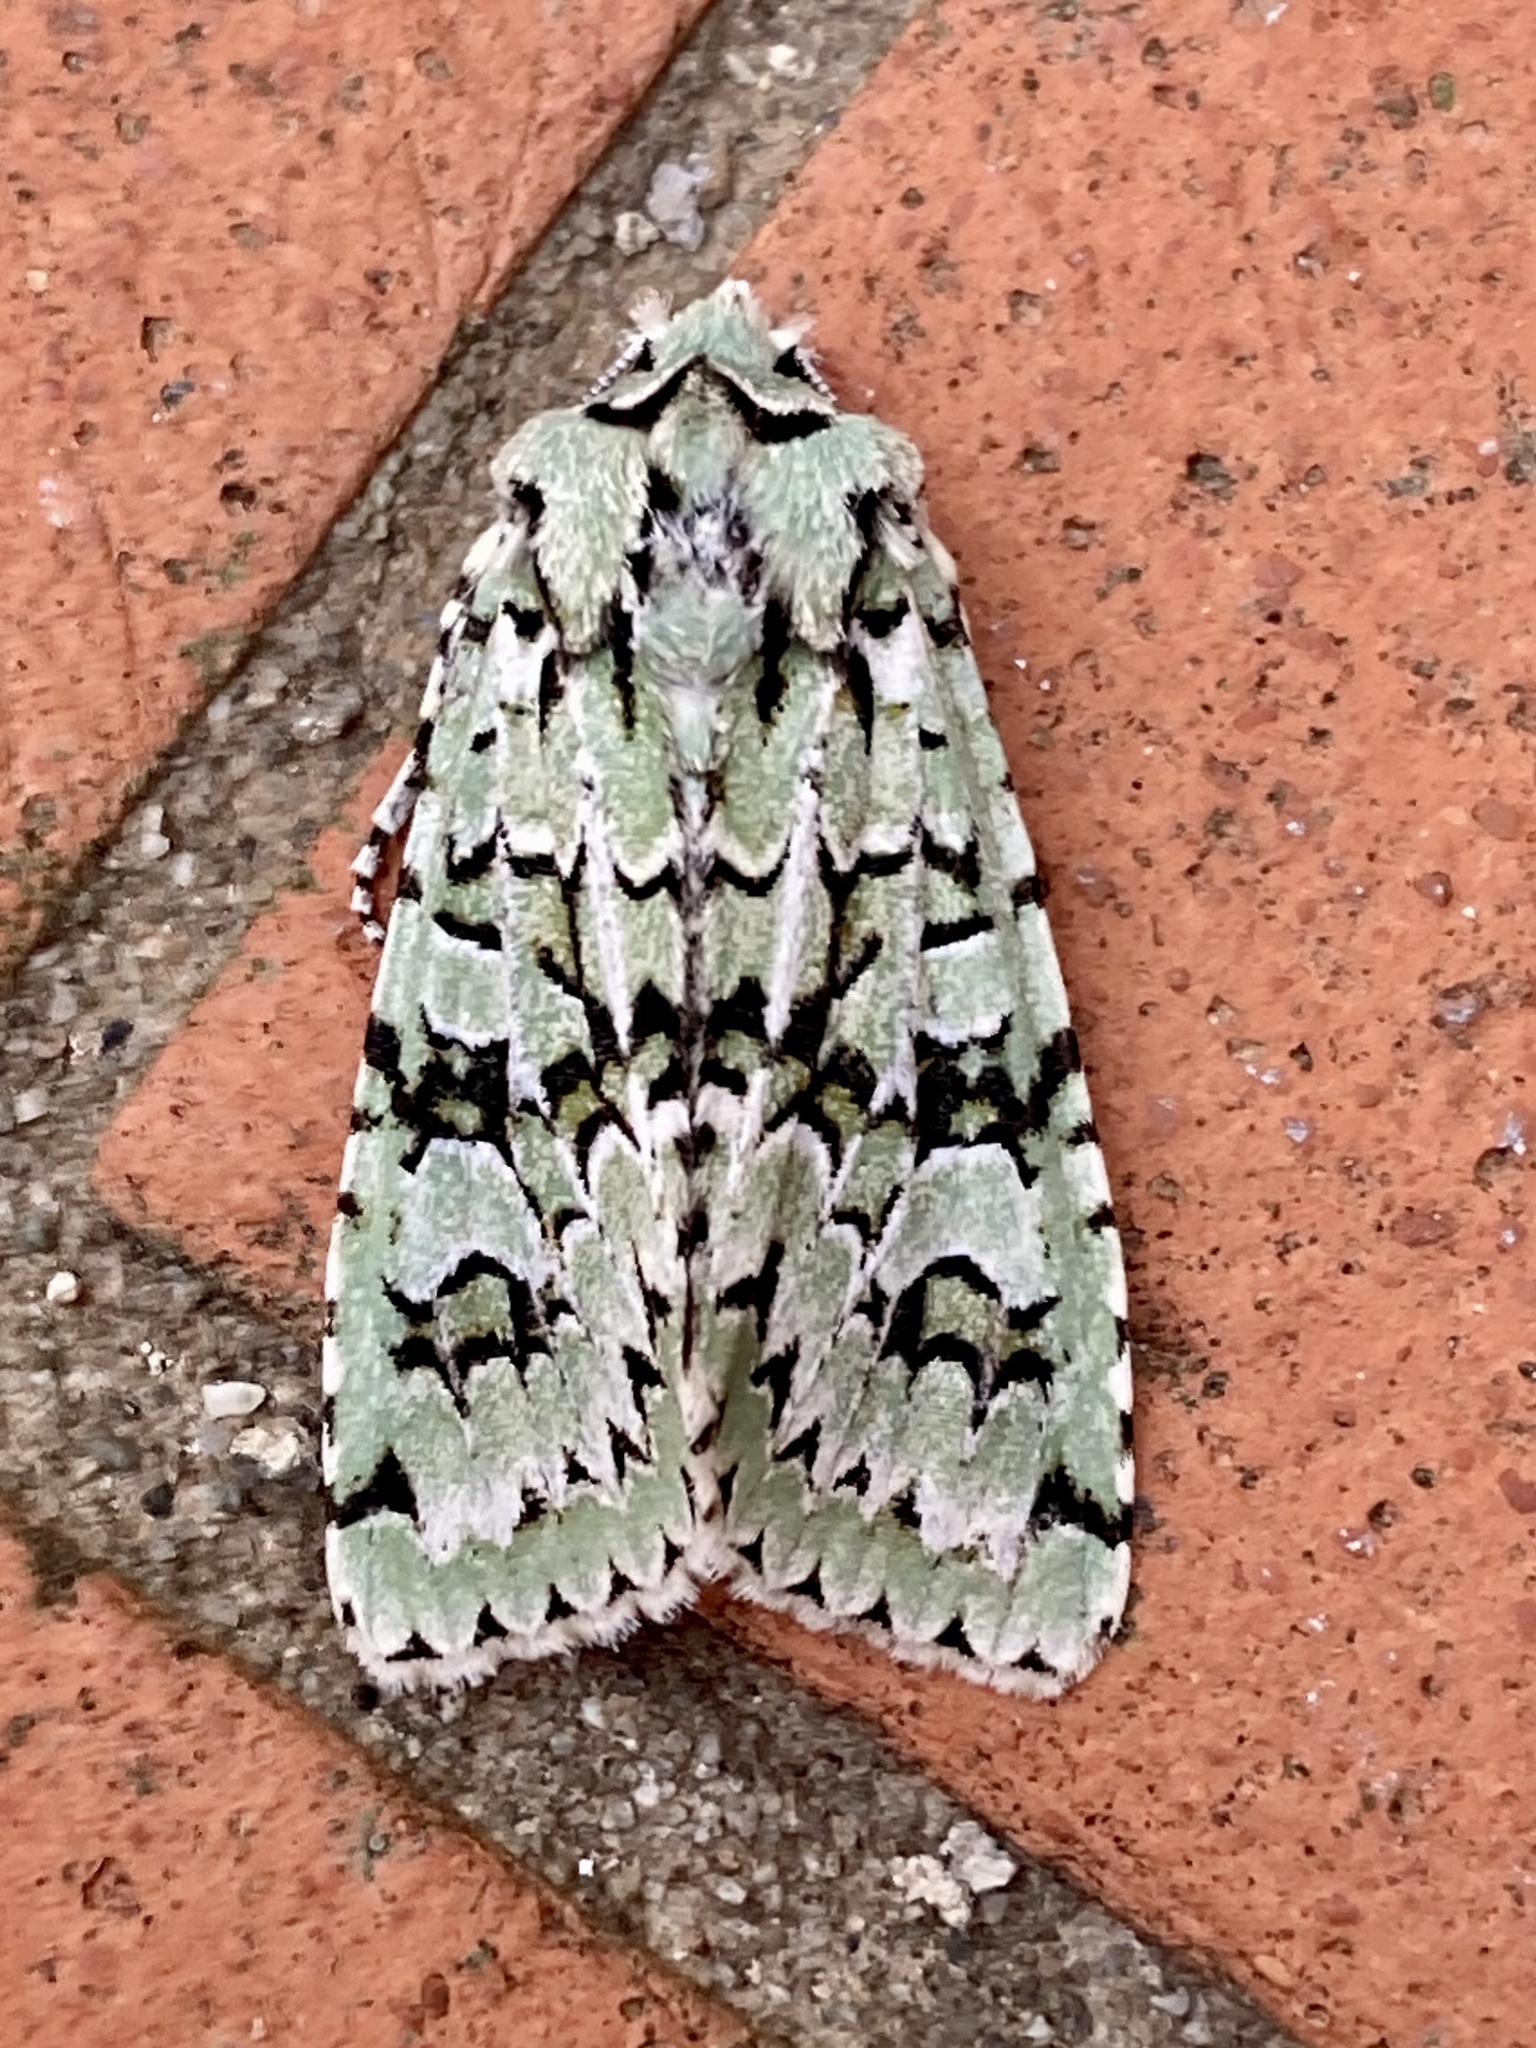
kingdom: Animalia
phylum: Arthropoda
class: Insecta
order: Lepidoptera
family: Noctuidae
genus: Griposia
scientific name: Griposia aprilina
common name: Merveille du jour
